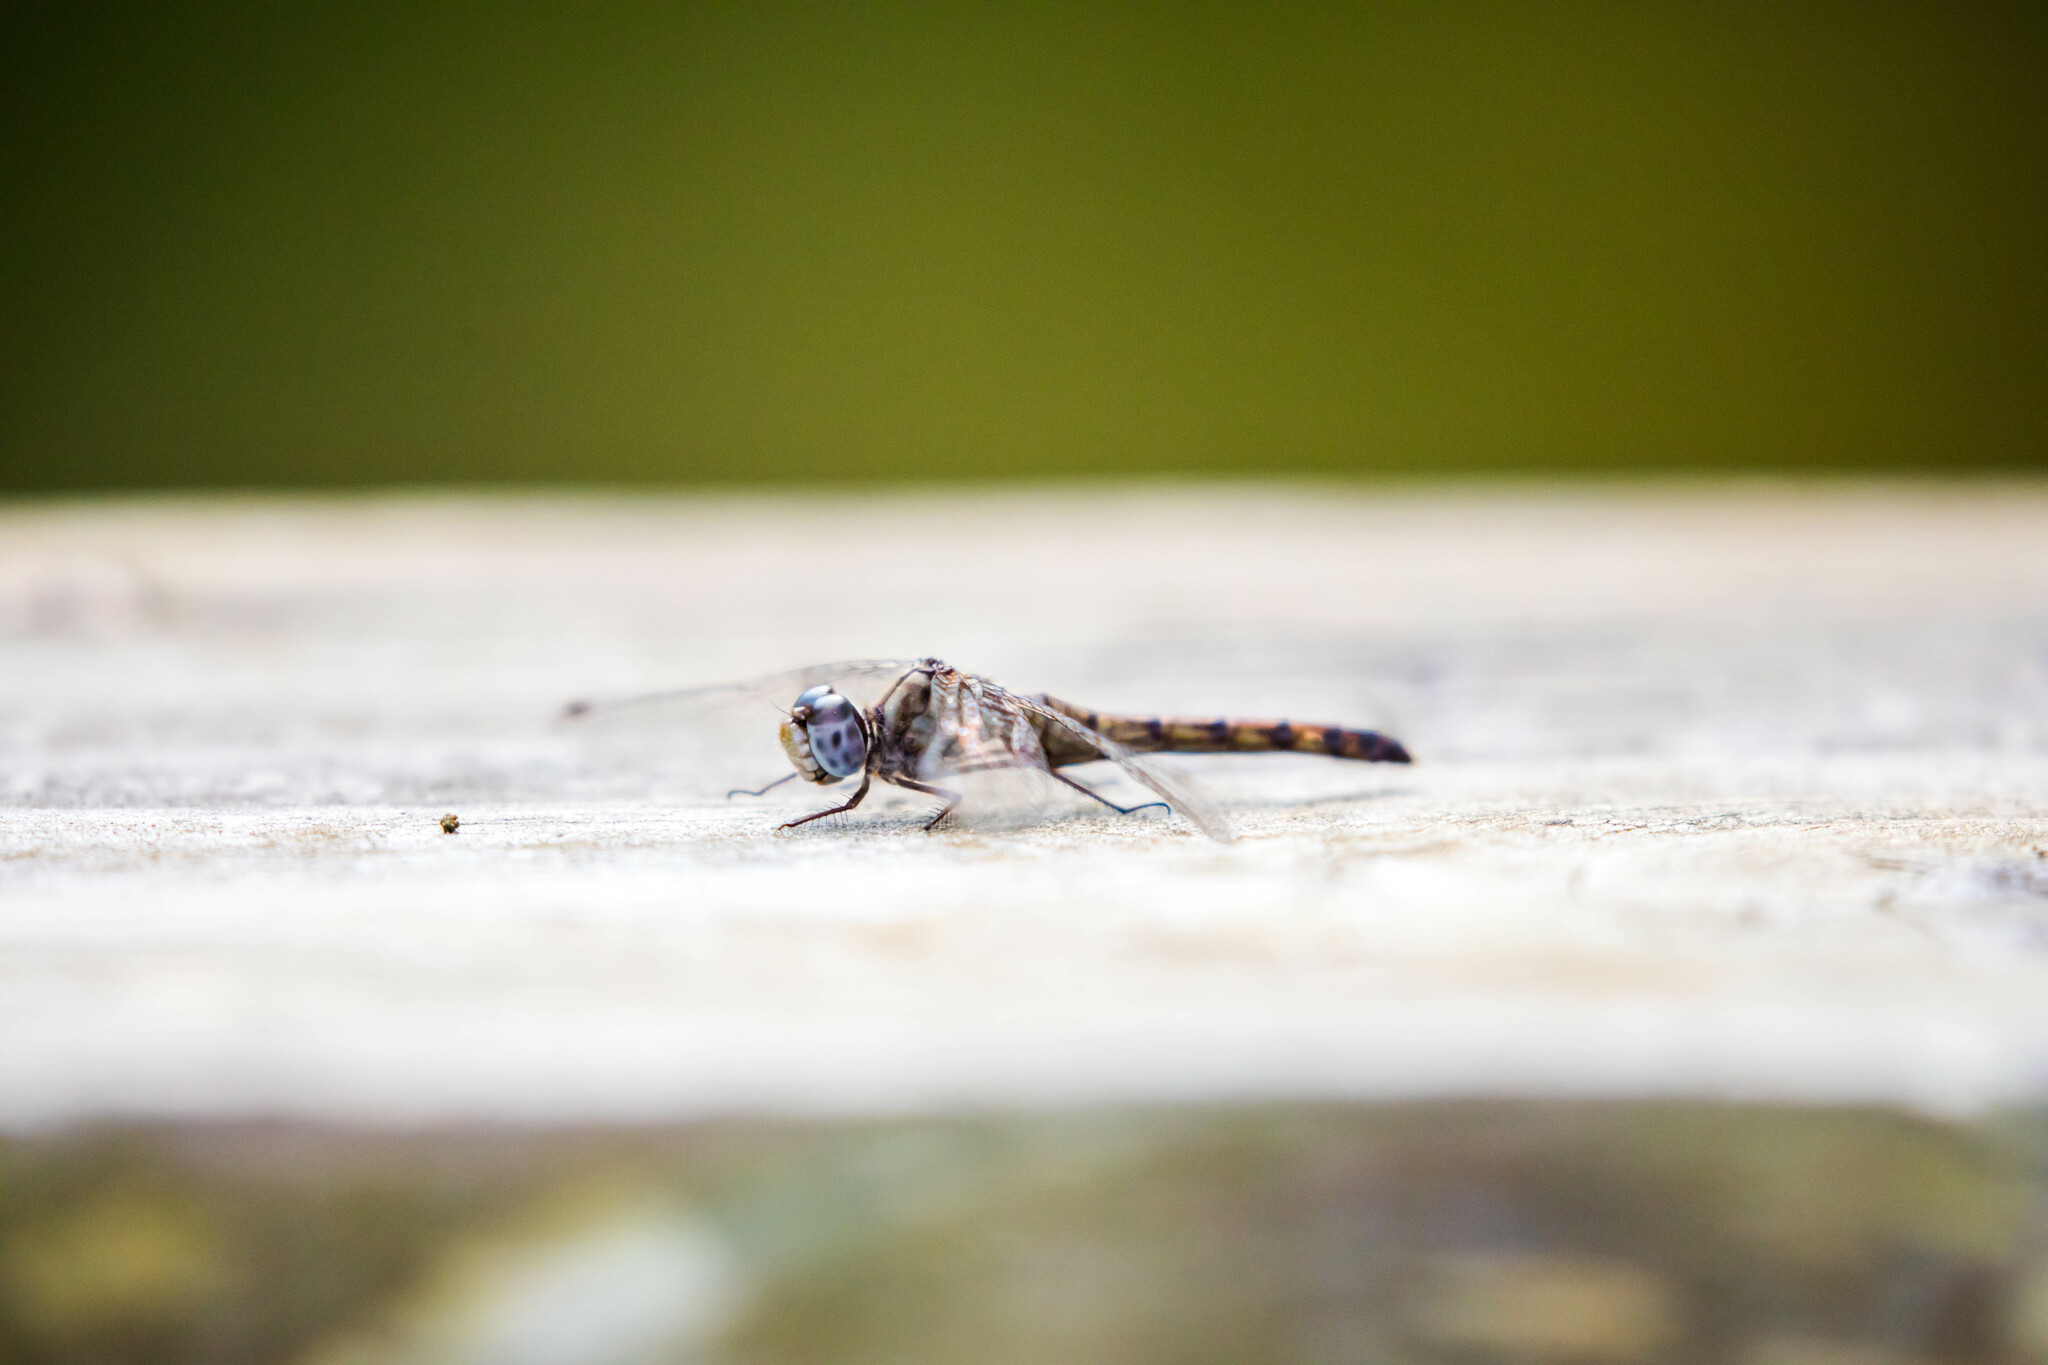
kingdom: Animalia
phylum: Arthropoda
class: Insecta
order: Odonata
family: Libellulidae
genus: Sympetrum
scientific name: Sympetrum ambiguum
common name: Blue-faced meadowhawk
